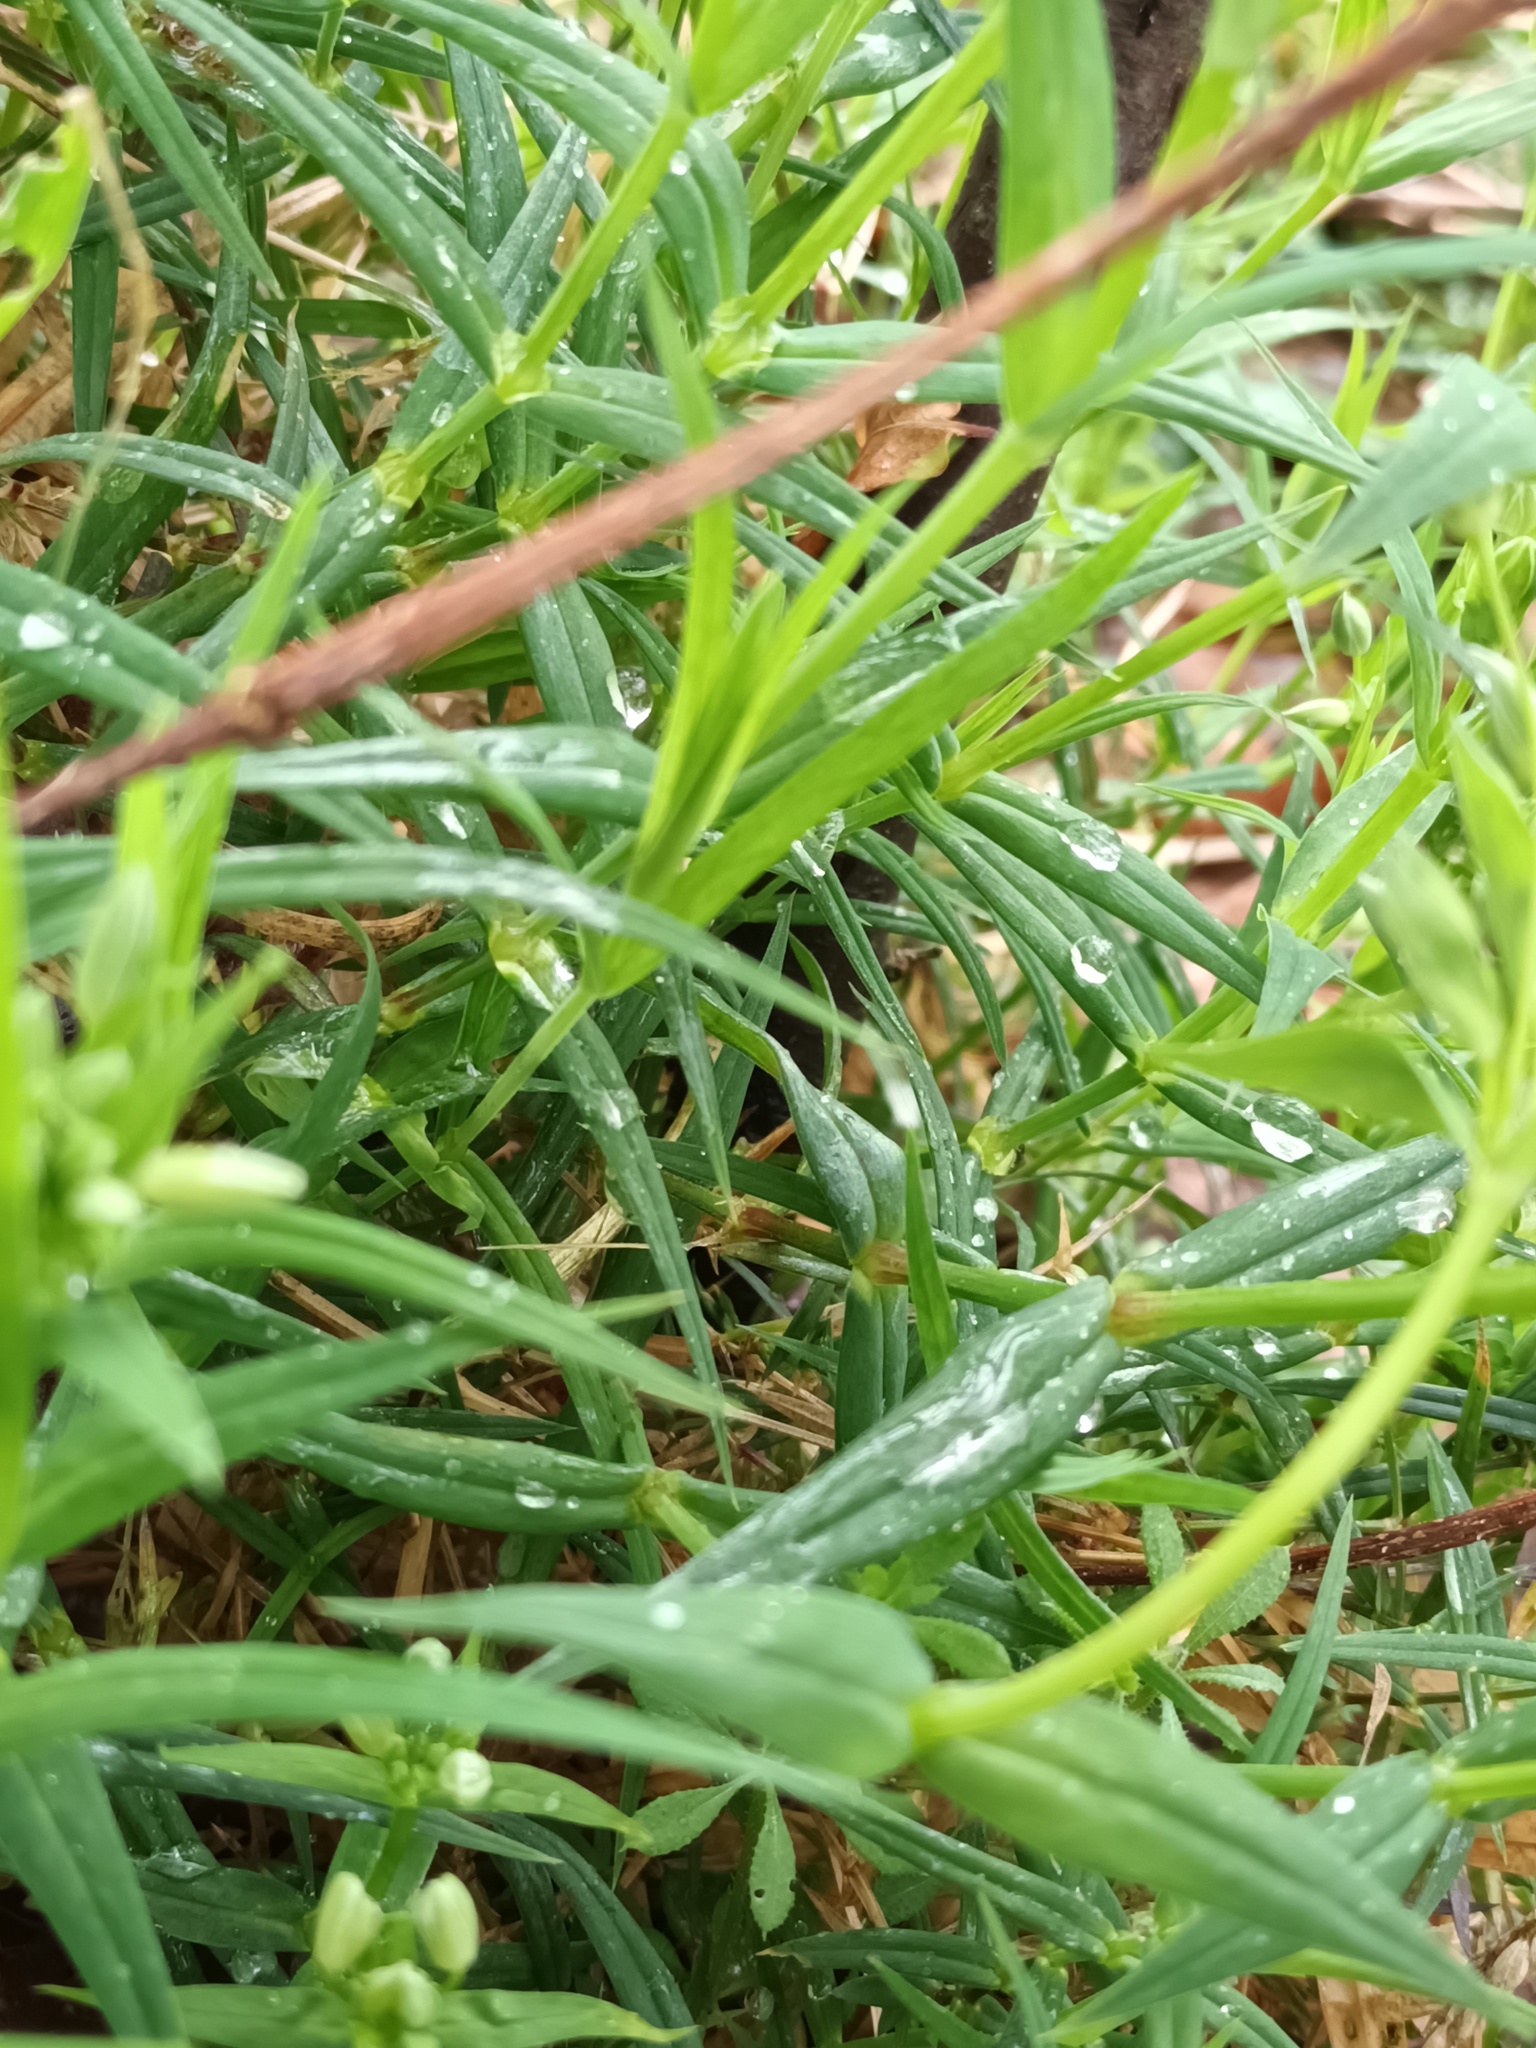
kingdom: Plantae
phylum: Tracheophyta
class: Magnoliopsida
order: Caryophyllales
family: Caryophyllaceae
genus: Rabelera
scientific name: Rabelera holostea
